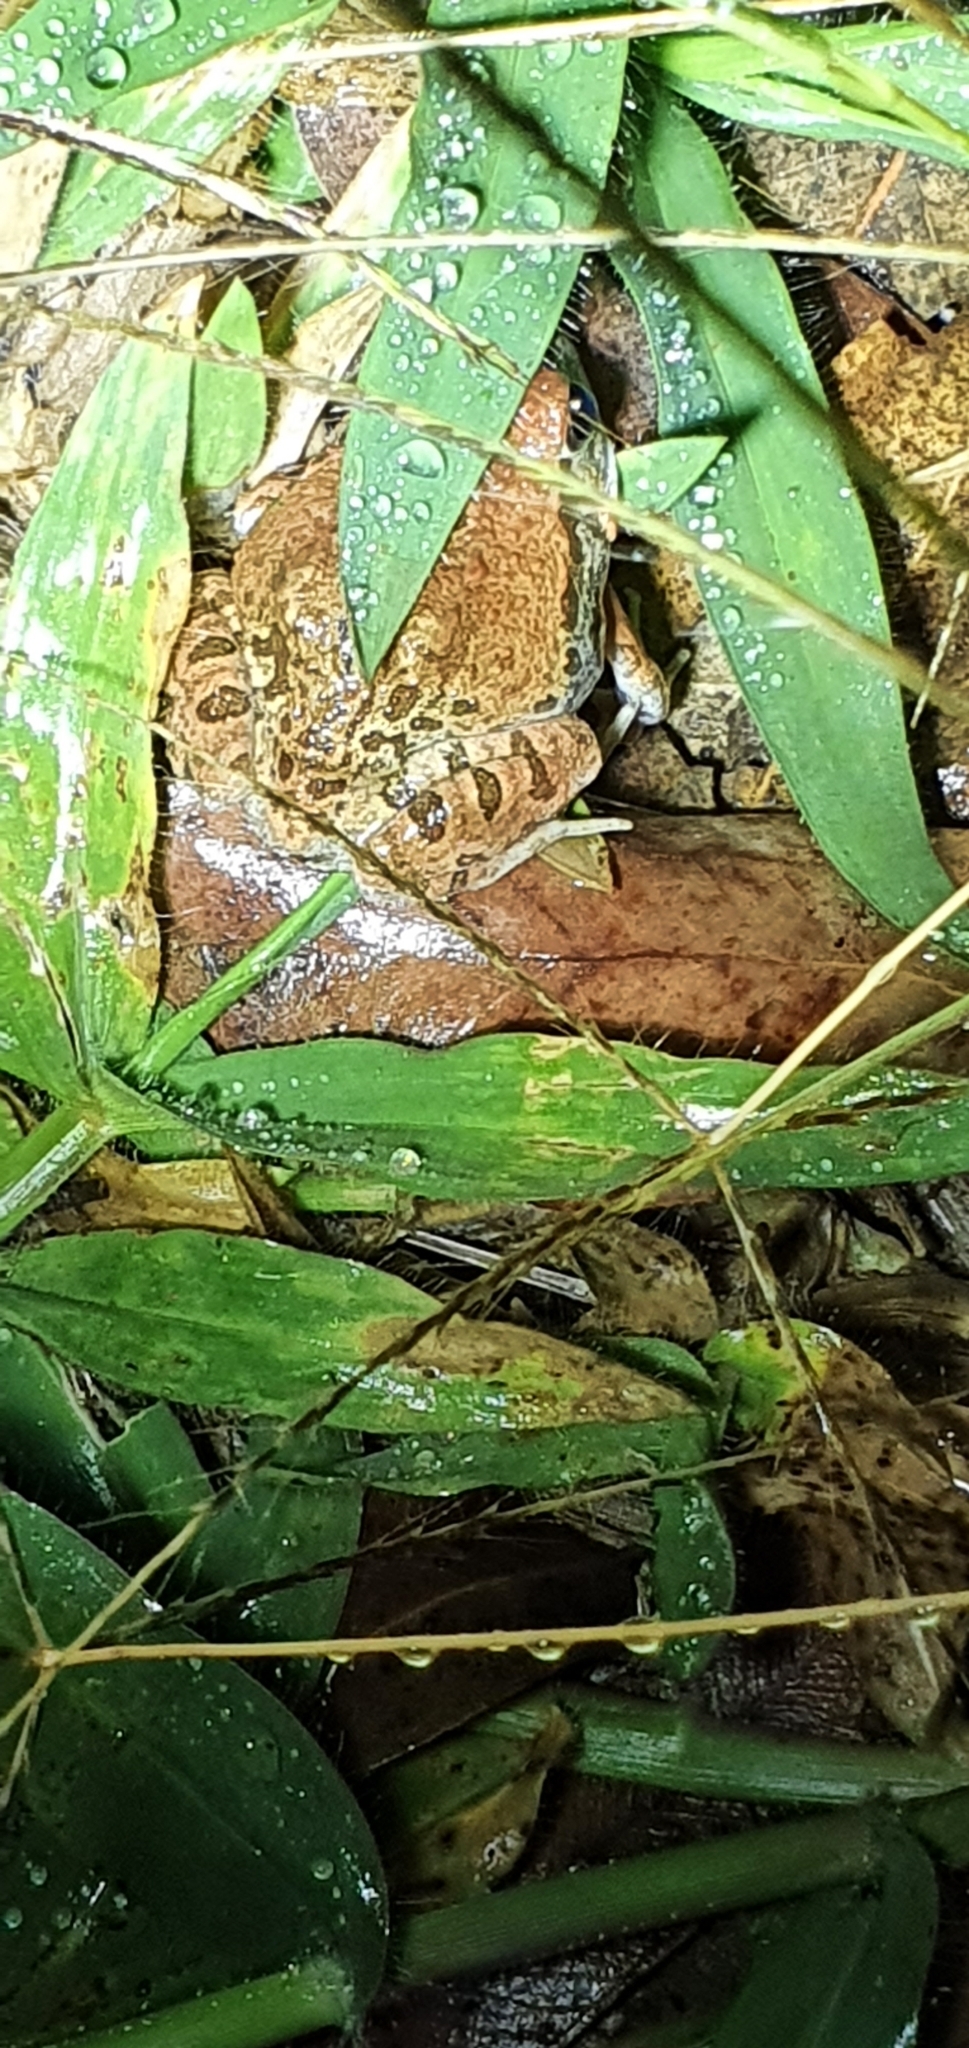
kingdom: Animalia
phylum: Chordata
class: Amphibia
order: Anura
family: Limnodynastidae
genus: Platyplectrum
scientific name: Platyplectrum ornatum
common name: Ornate burrowing frog
